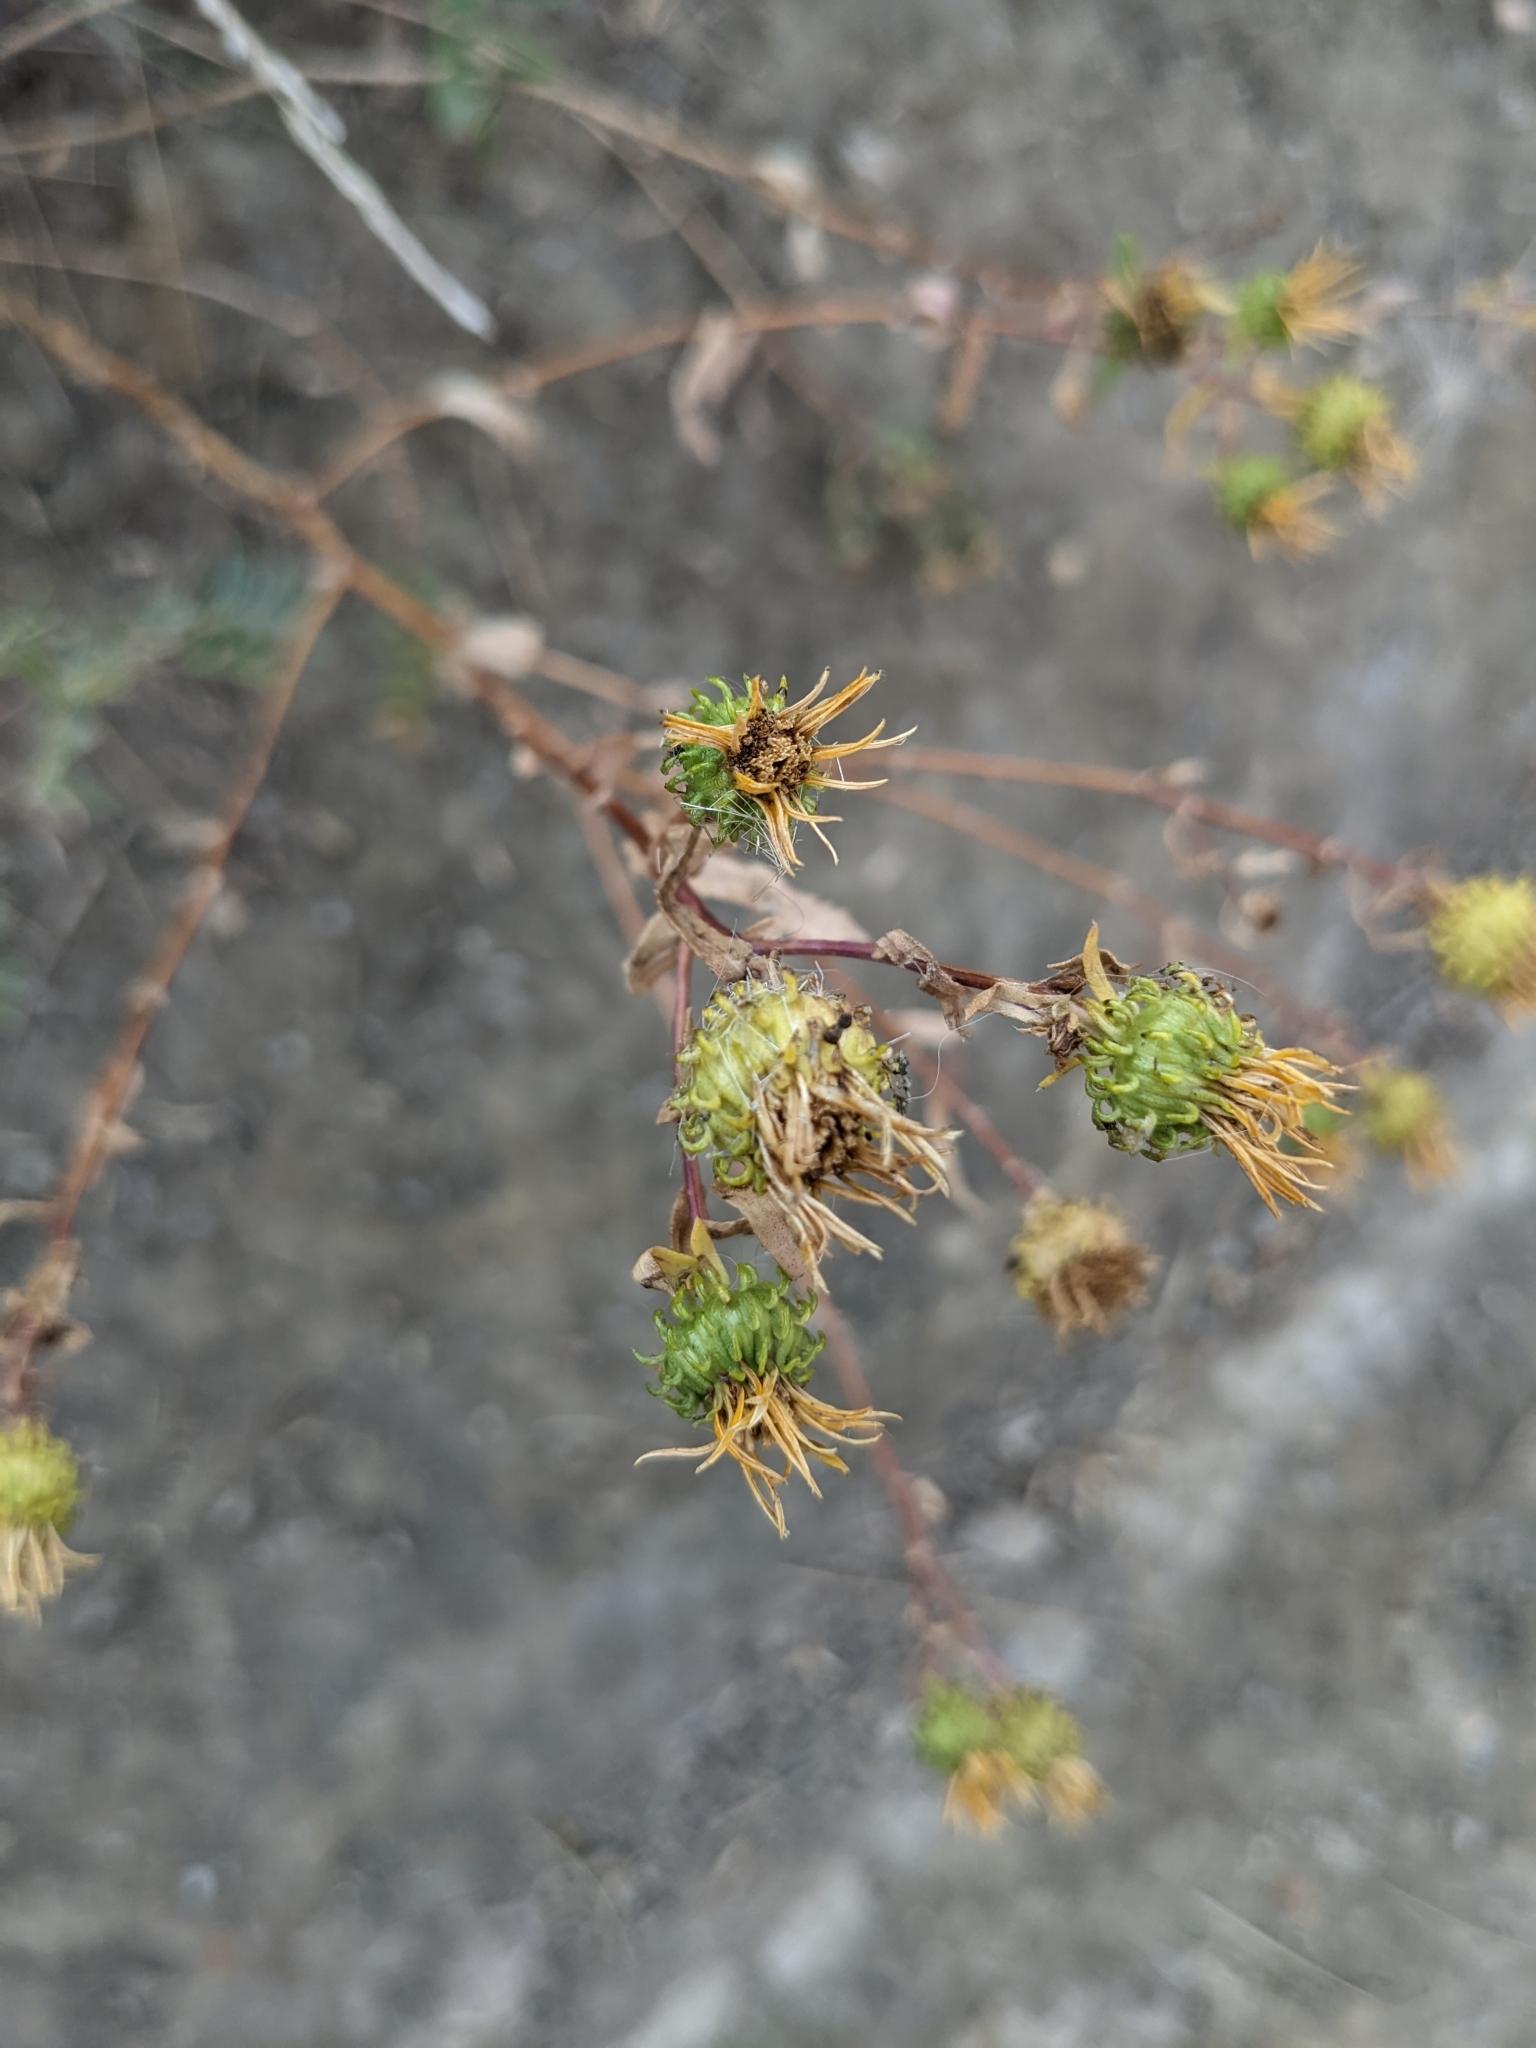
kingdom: Plantae
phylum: Tracheophyta
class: Magnoliopsida
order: Asterales
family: Asteraceae
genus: Grindelia
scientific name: Grindelia squarrosa
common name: Curly-cup gumweed
